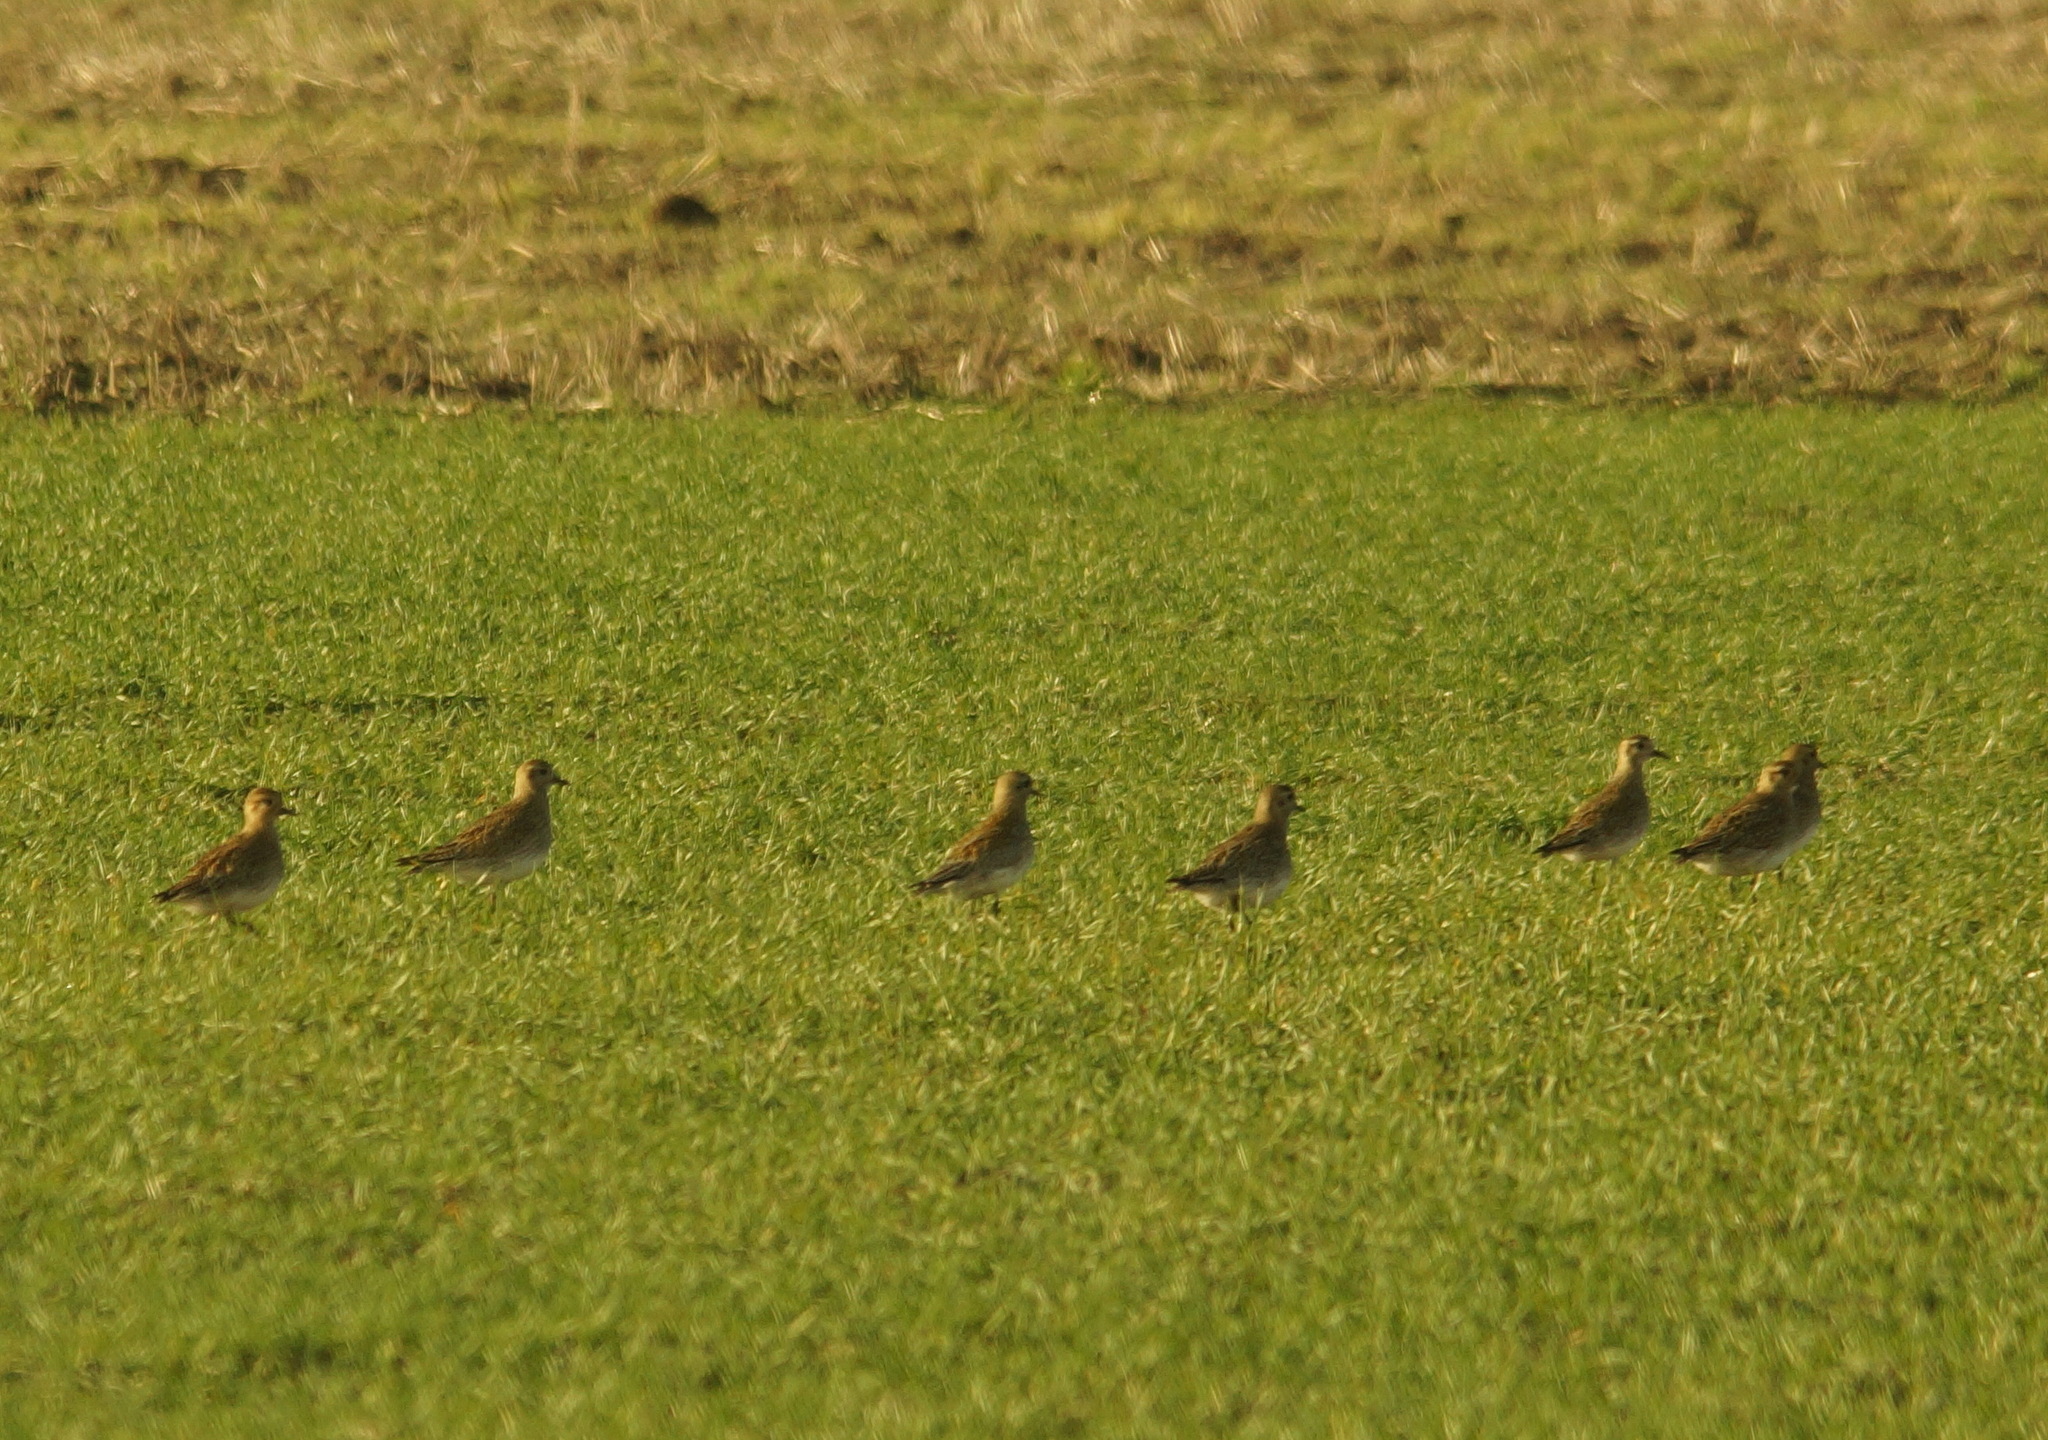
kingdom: Animalia
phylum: Chordata
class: Aves
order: Charadriiformes
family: Charadriidae
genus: Pluvialis
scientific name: Pluvialis apricaria
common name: European golden plover
